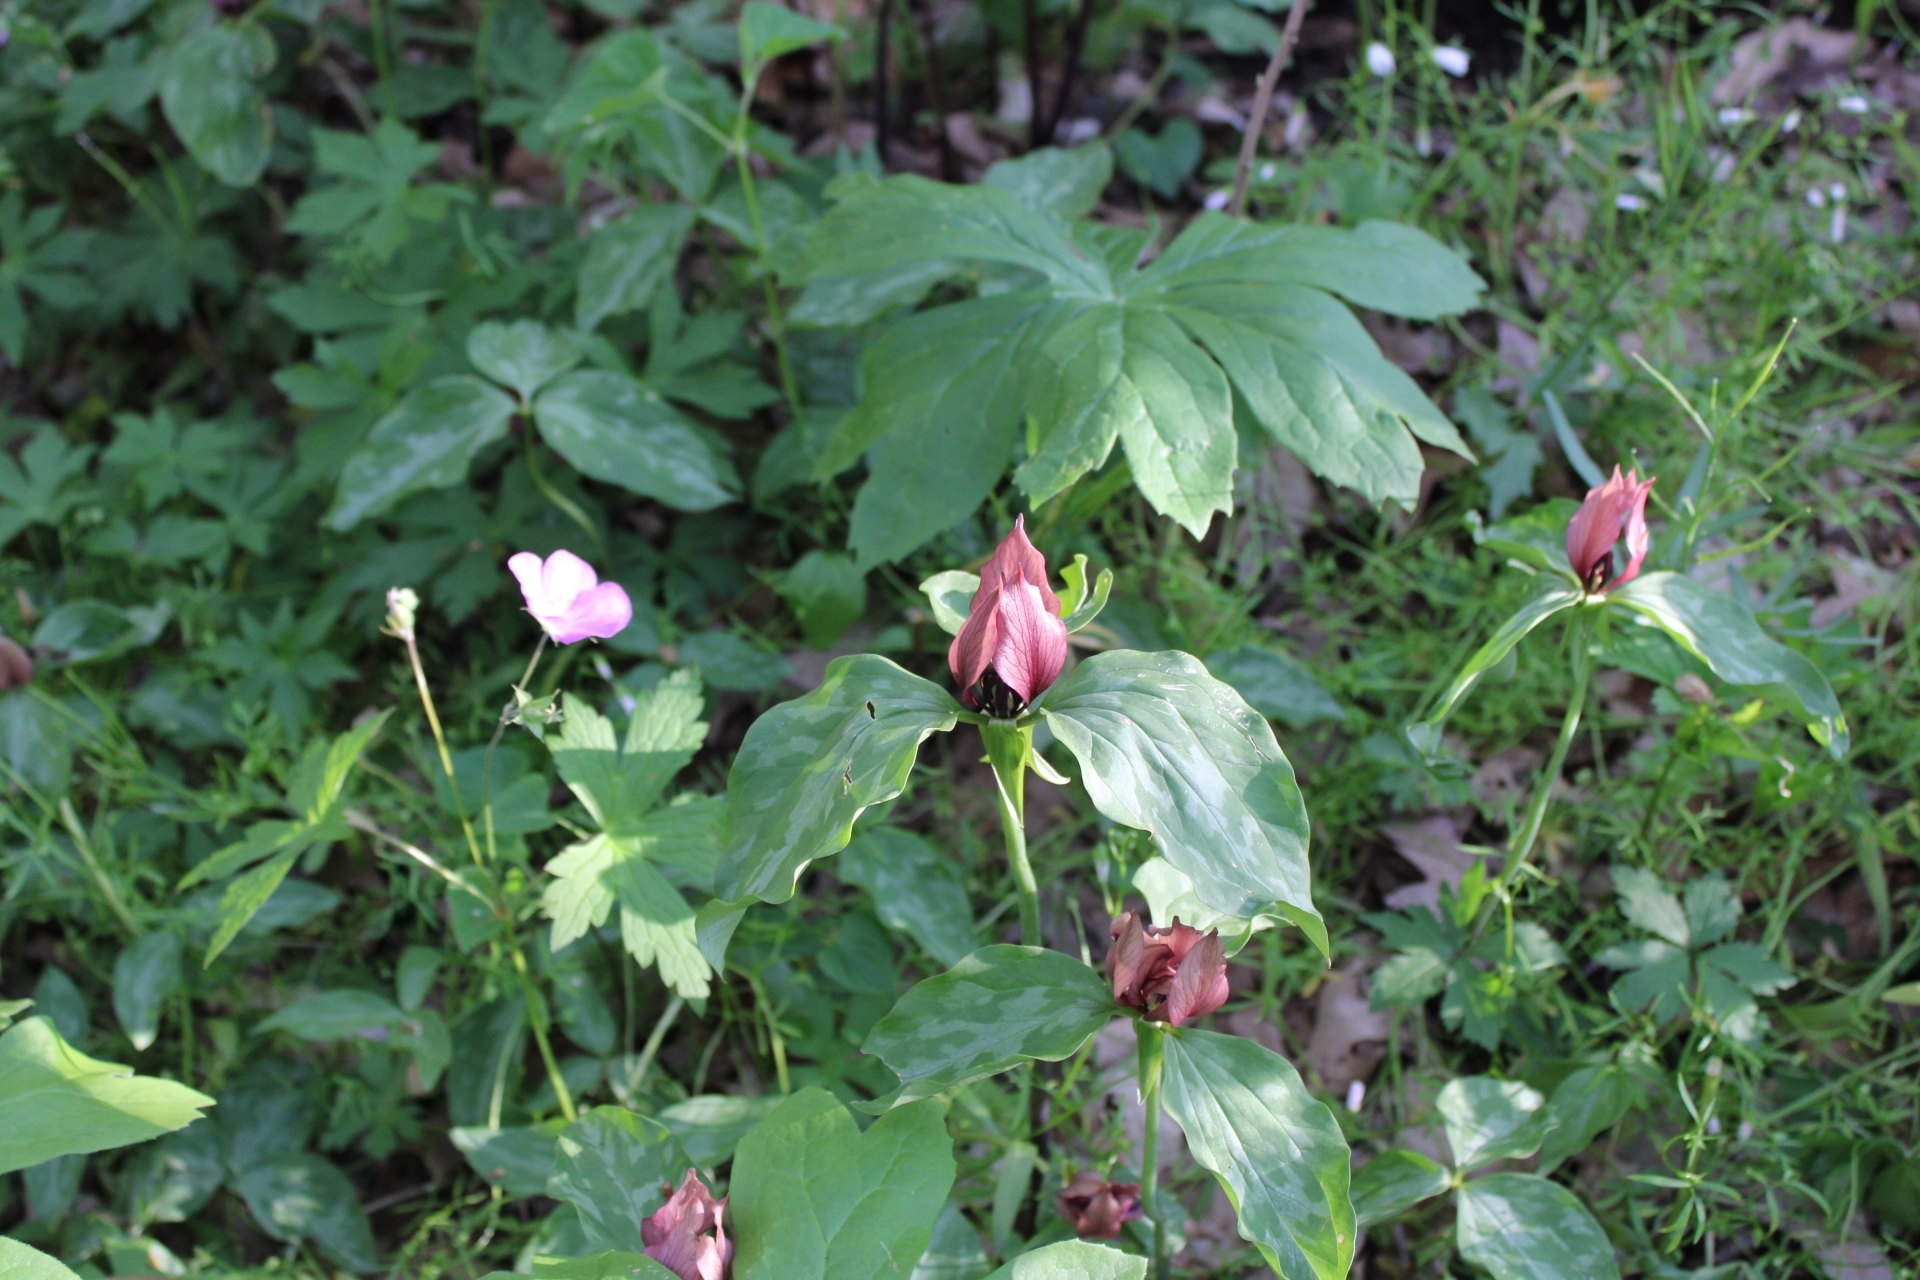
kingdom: Plantae
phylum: Tracheophyta
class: Liliopsida
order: Liliales
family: Melanthiaceae
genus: Trillium
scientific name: Trillium recurvatum
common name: Bloody butcher
